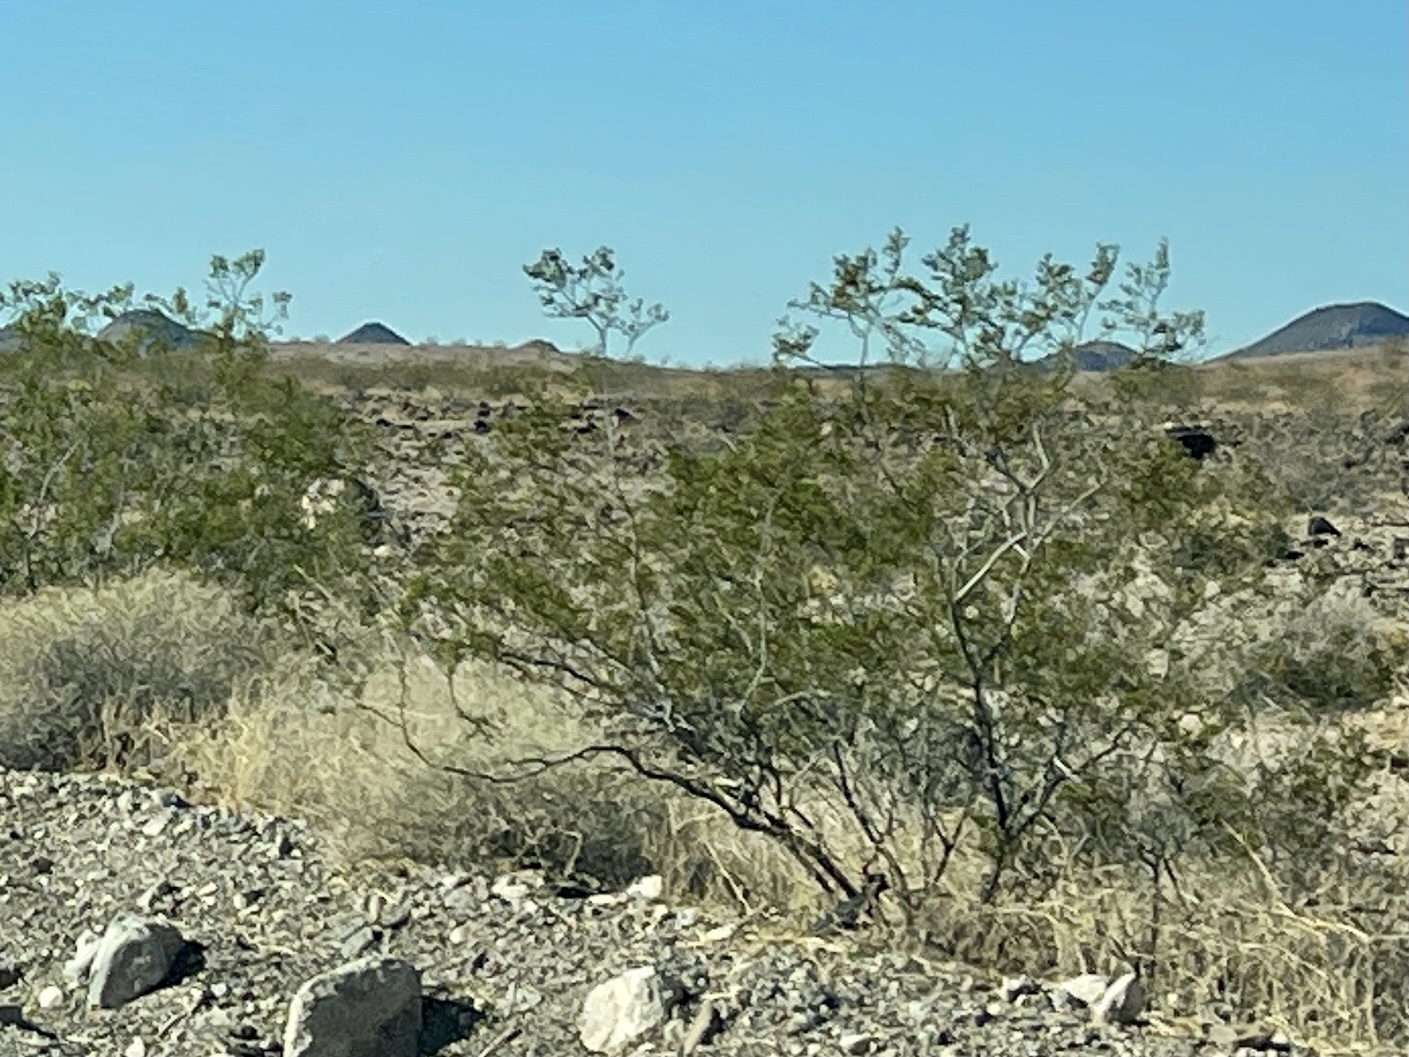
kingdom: Plantae
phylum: Tracheophyta
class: Magnoliopsida
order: Zygophyllales
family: Zygophyllaceae
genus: Larrea
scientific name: Larrea tridentata
